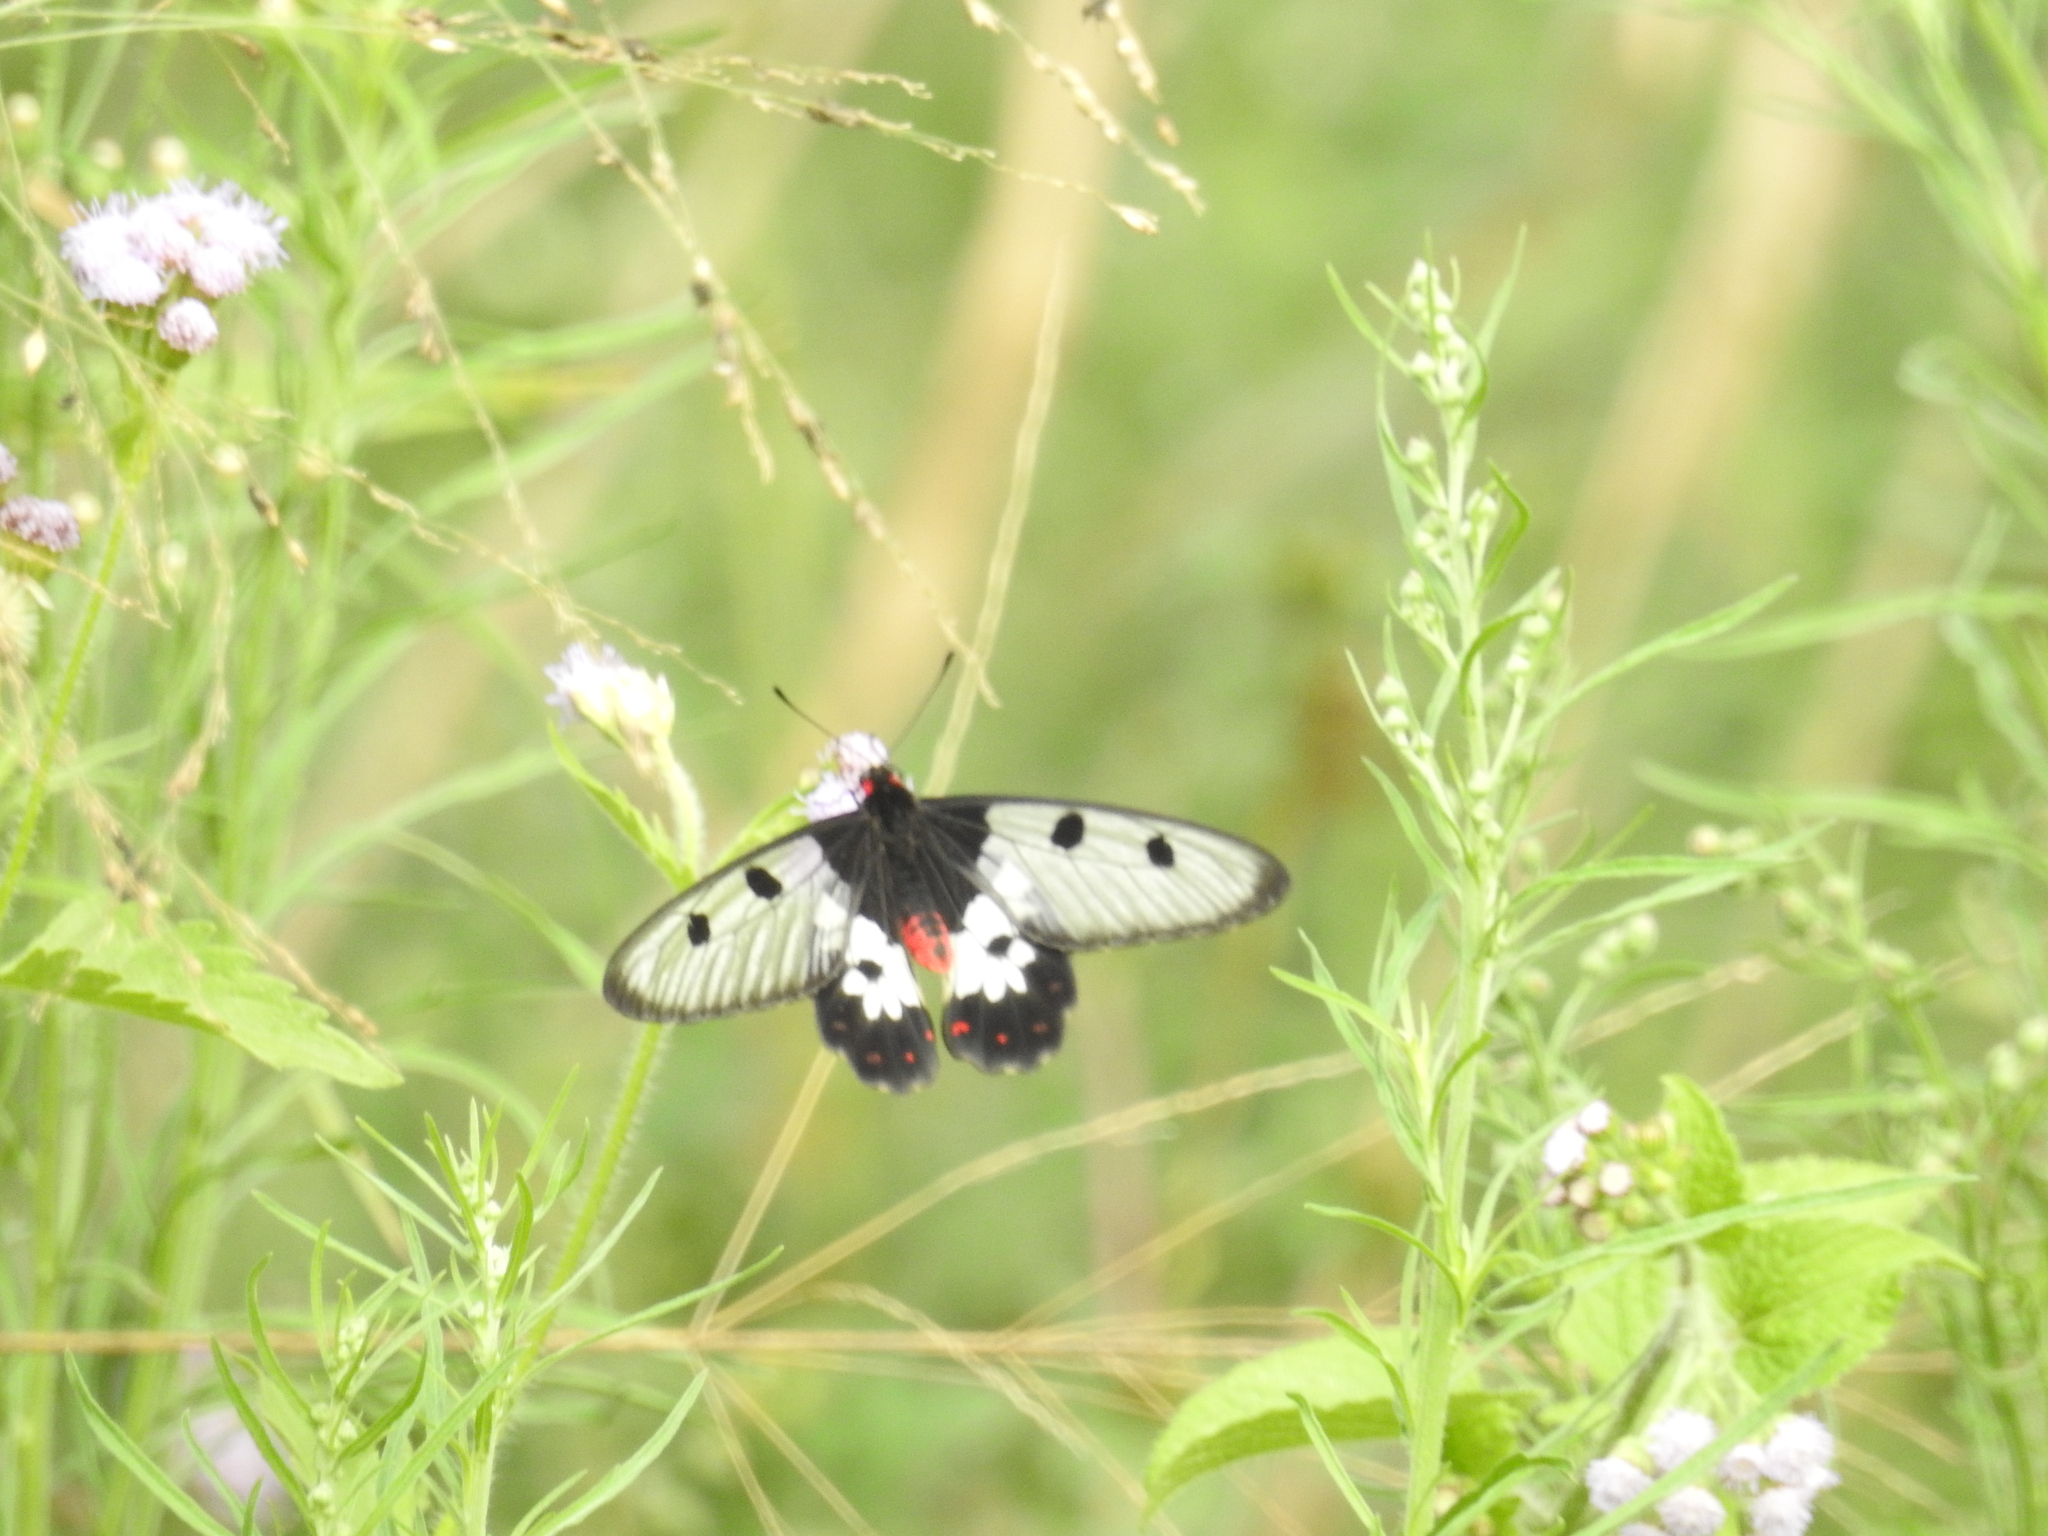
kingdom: Animalia
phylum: Arthropoda
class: Insecta
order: Lepidoptera
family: Papilionidae
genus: Cressida
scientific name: Cressida cressida
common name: Big greasy
